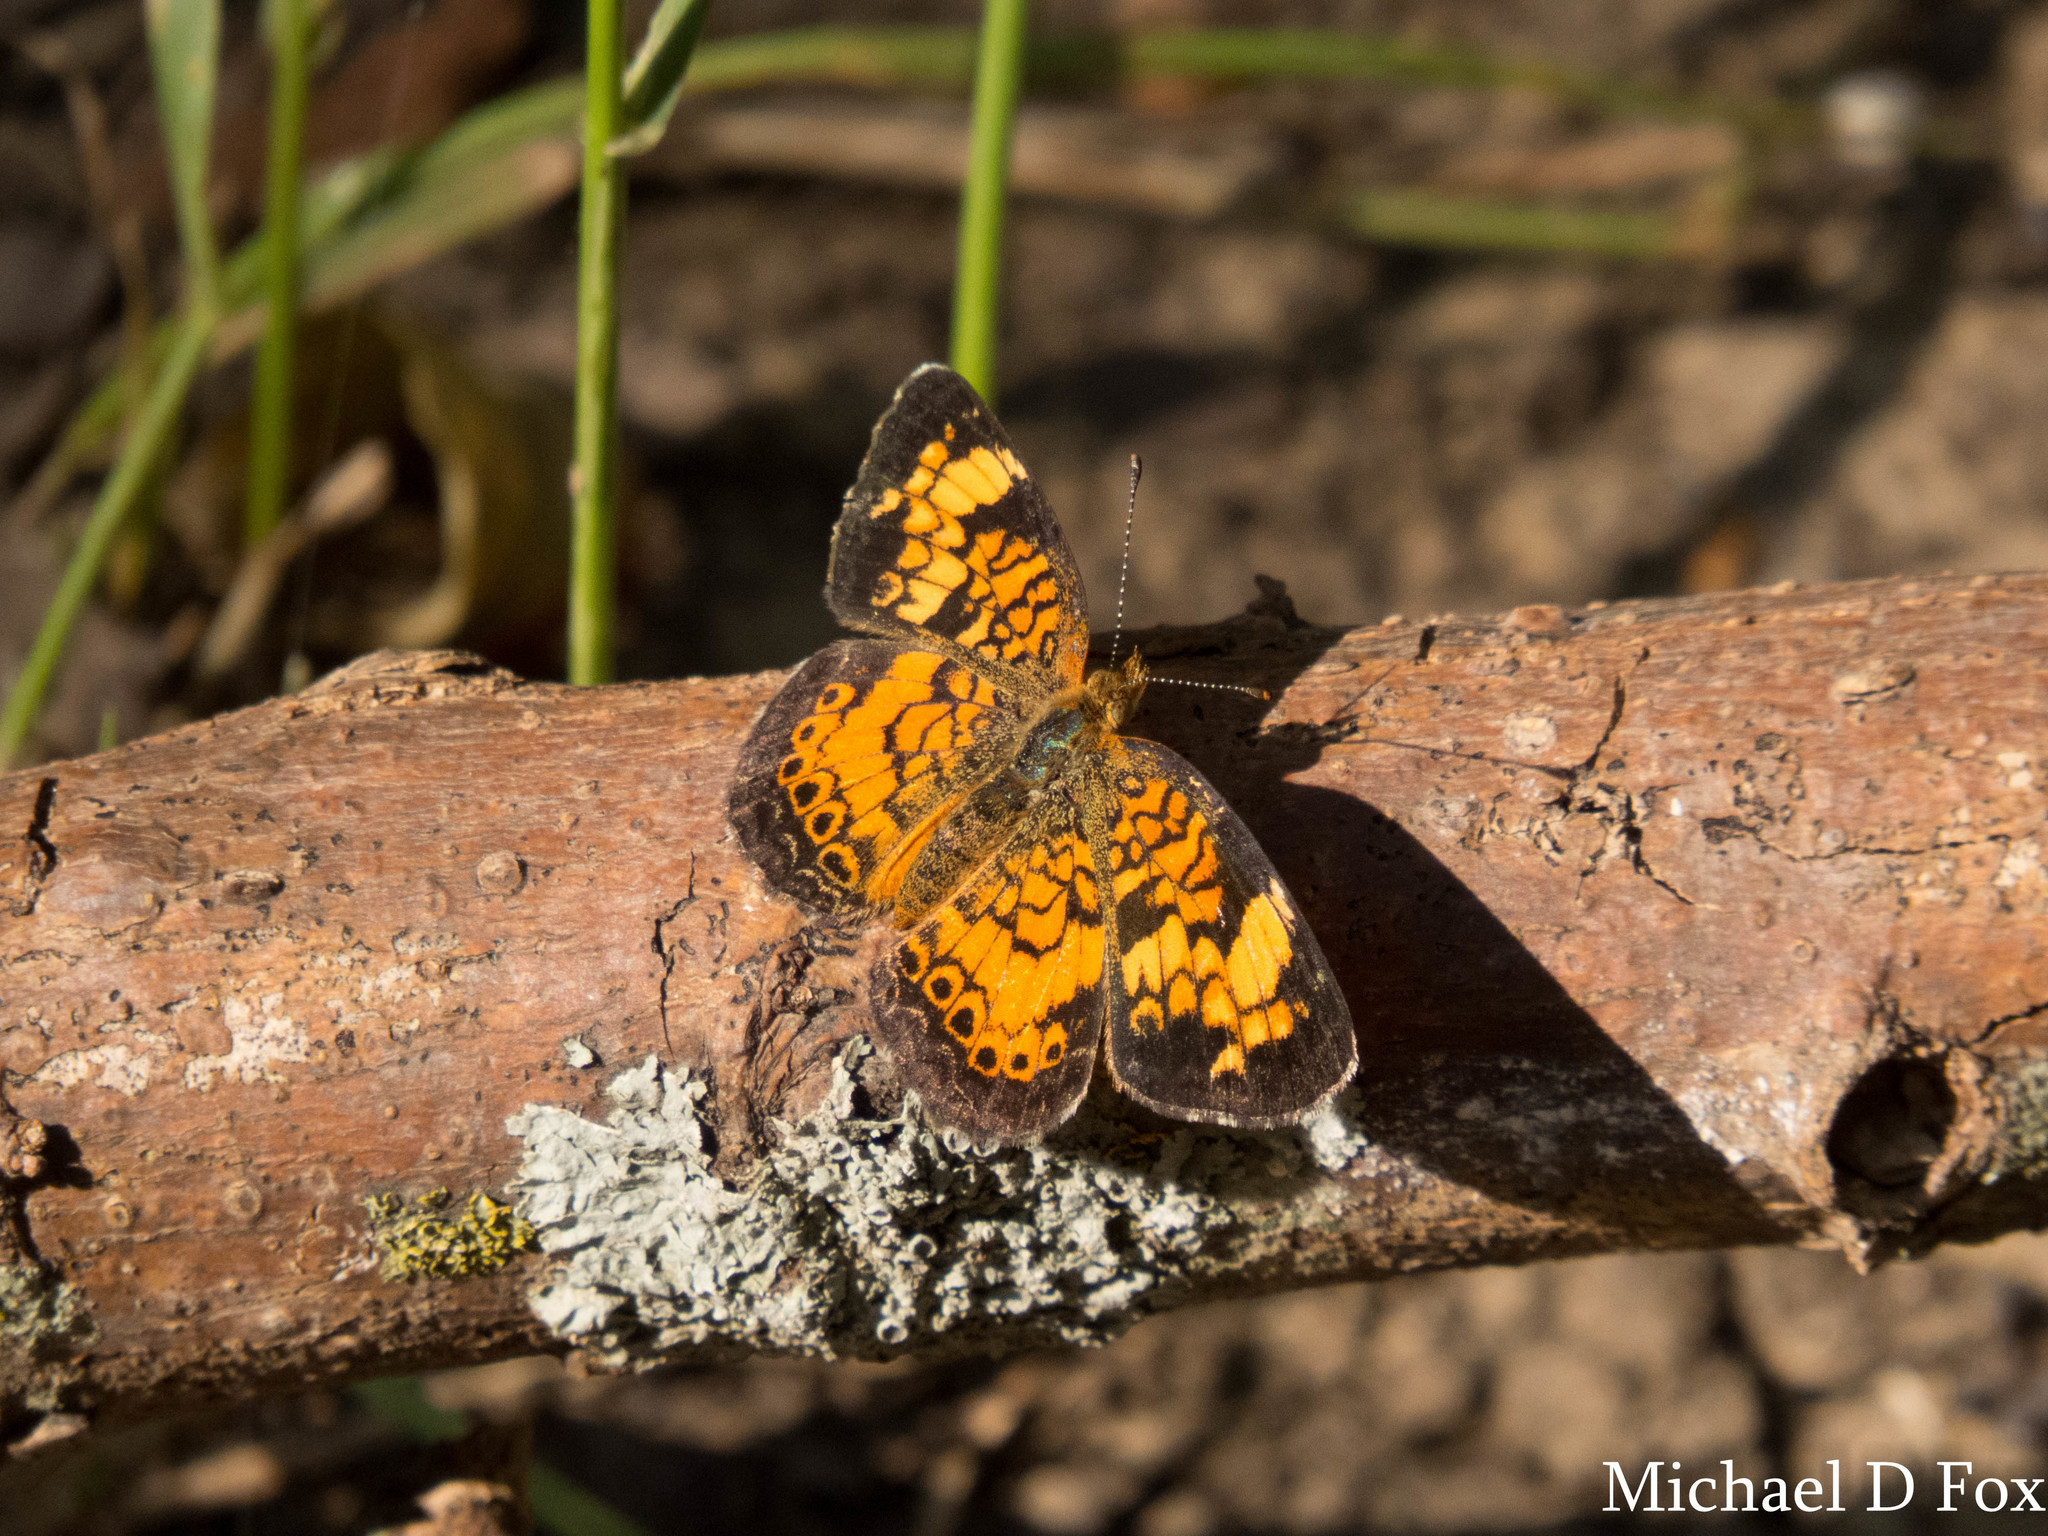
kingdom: Animalia
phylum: Arthropoda
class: Insecta
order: Lepidoptera
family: Nymphalidae
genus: Phyciodes
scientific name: Phyciodes tharos
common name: Pearl crescent
